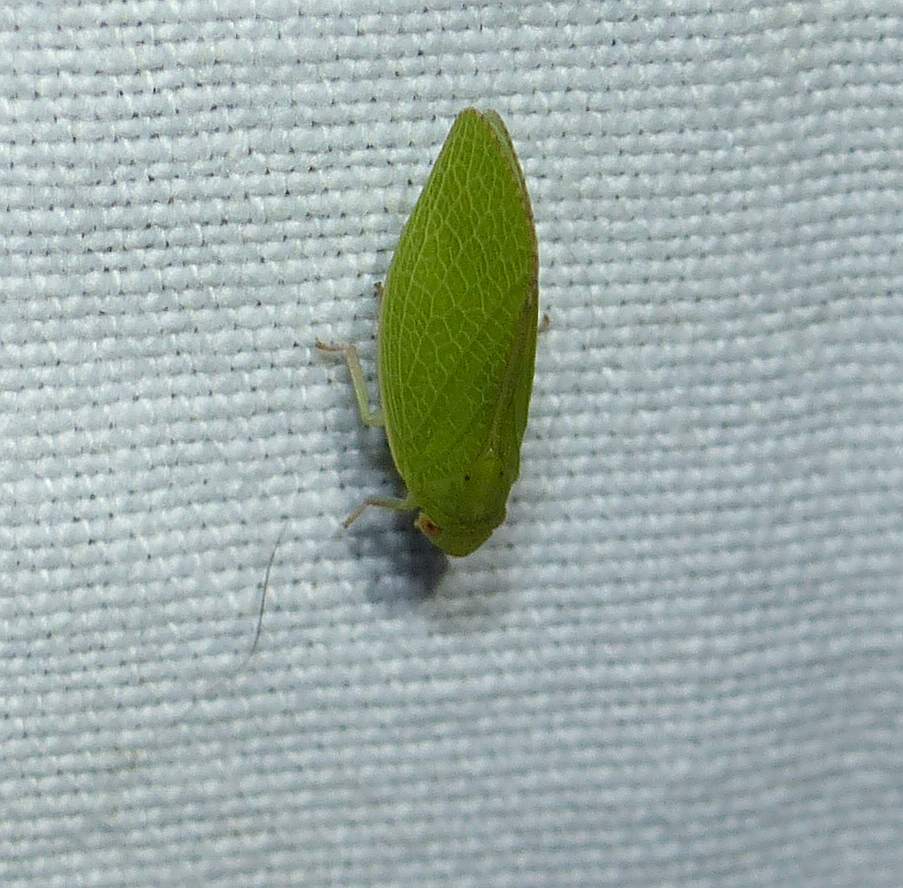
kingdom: Animalia
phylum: Arthropoda
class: Insecta
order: Hemiptera
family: Acanaloniidae
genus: Acanalonia
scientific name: Acanalonia conica
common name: Green cone-headed planthopper
